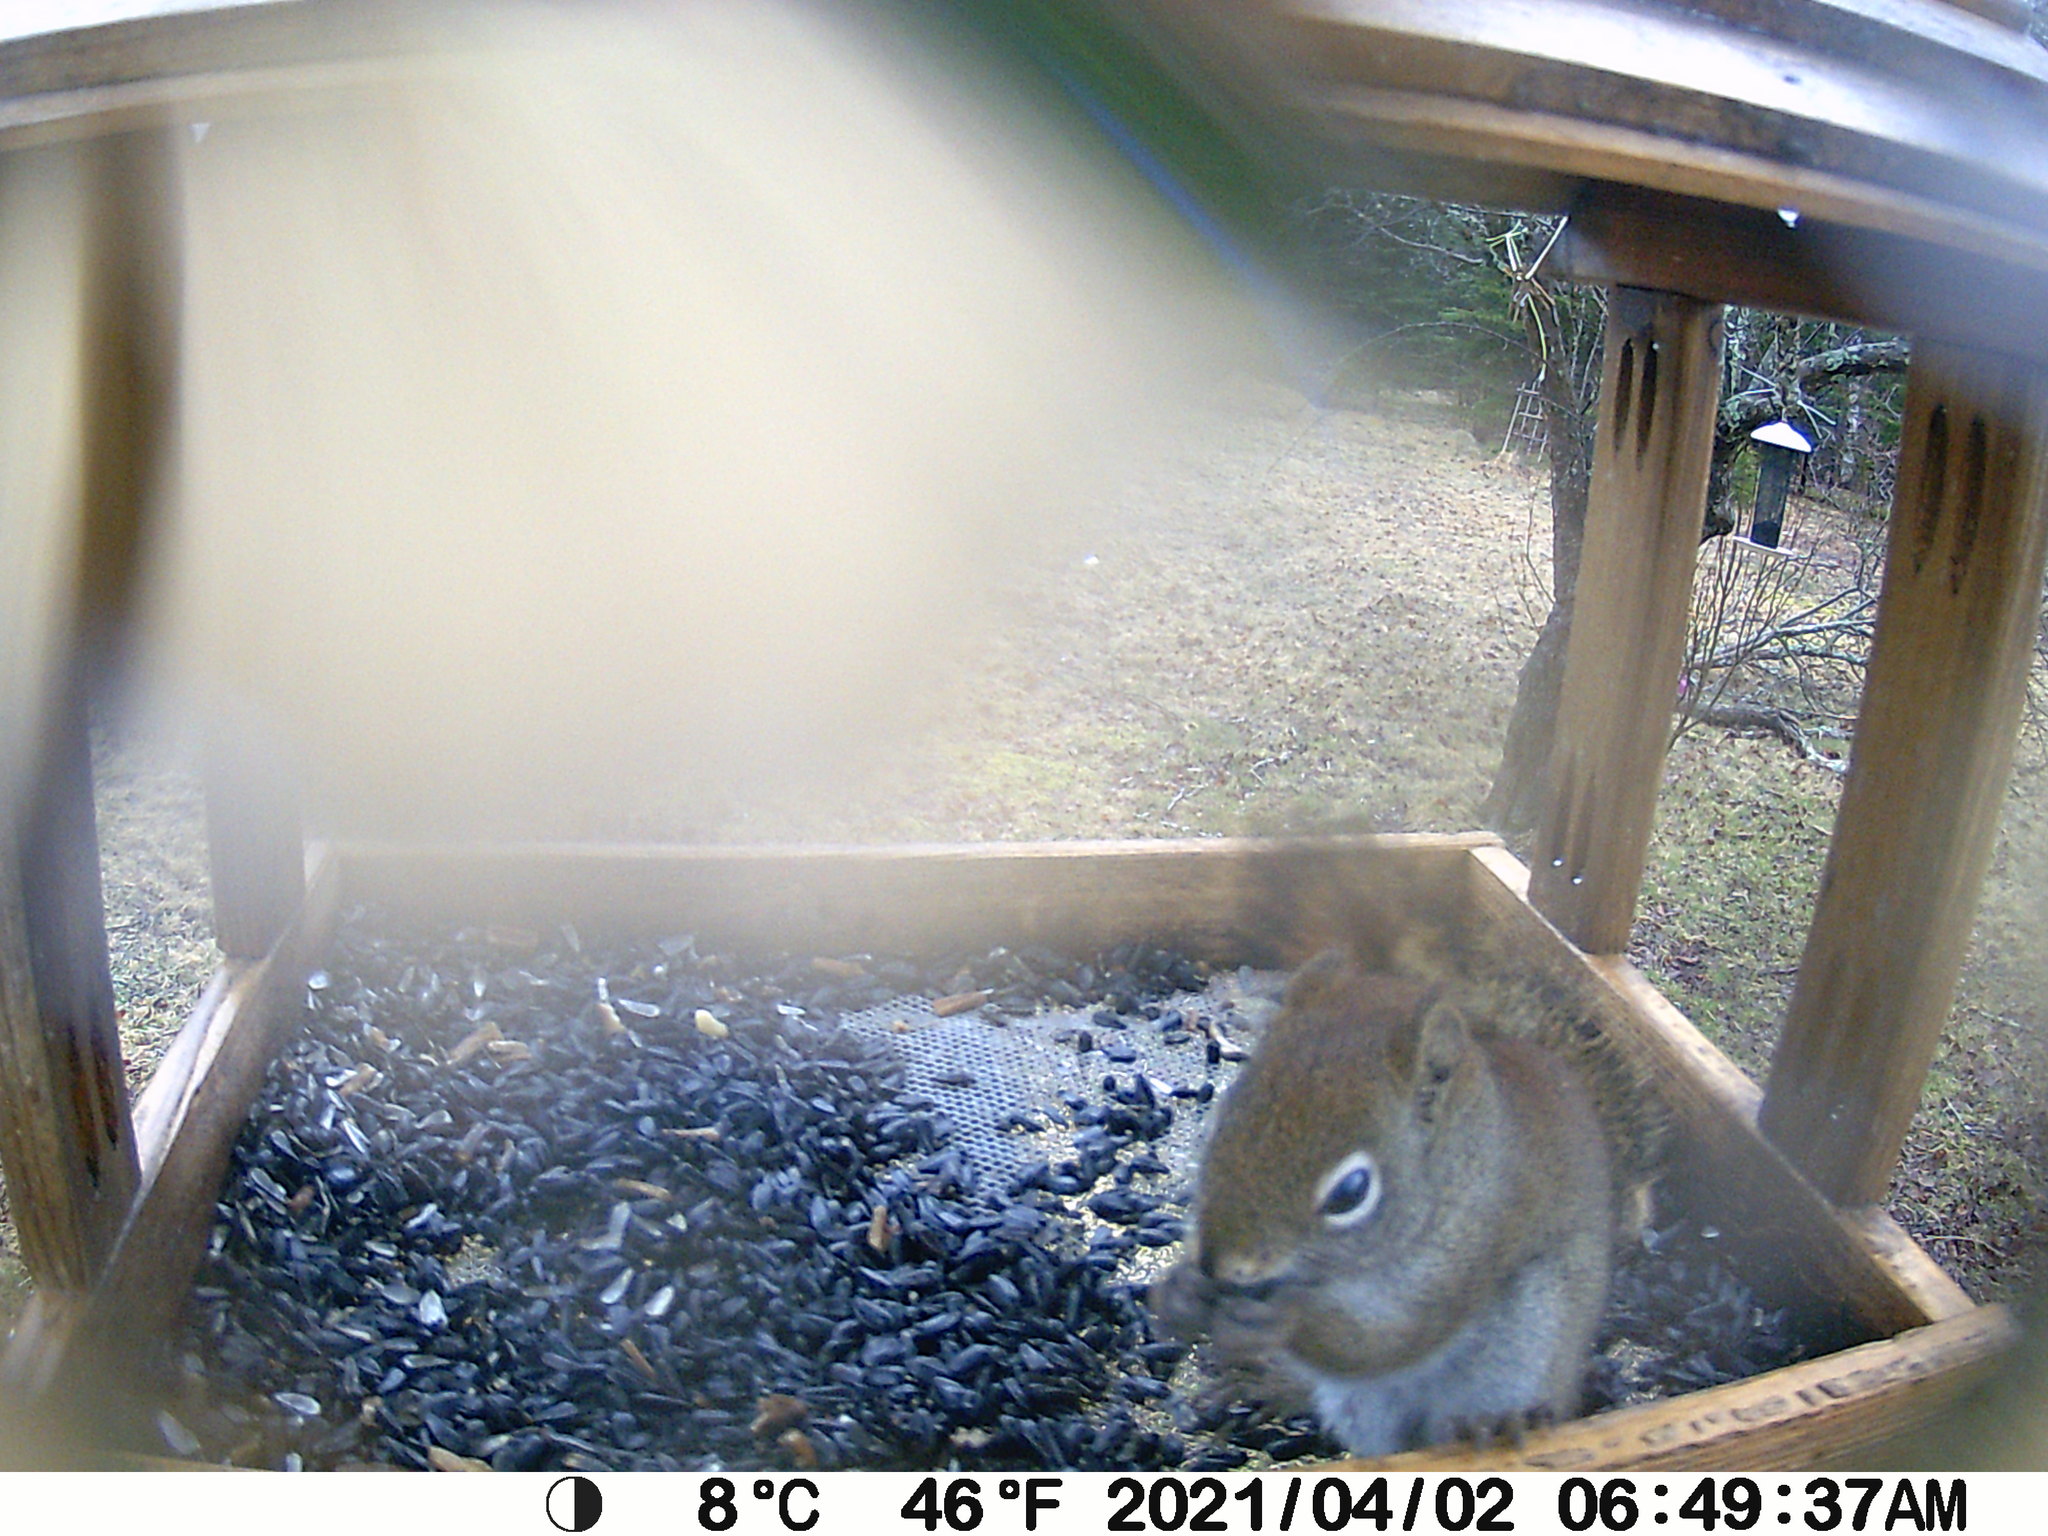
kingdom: Animalia
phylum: Chordata
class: Mammalia
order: Rodentia
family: Sciuridae
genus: Tamiasciurus
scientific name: Tamiasciurus hudsonicus
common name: Red squirrel
